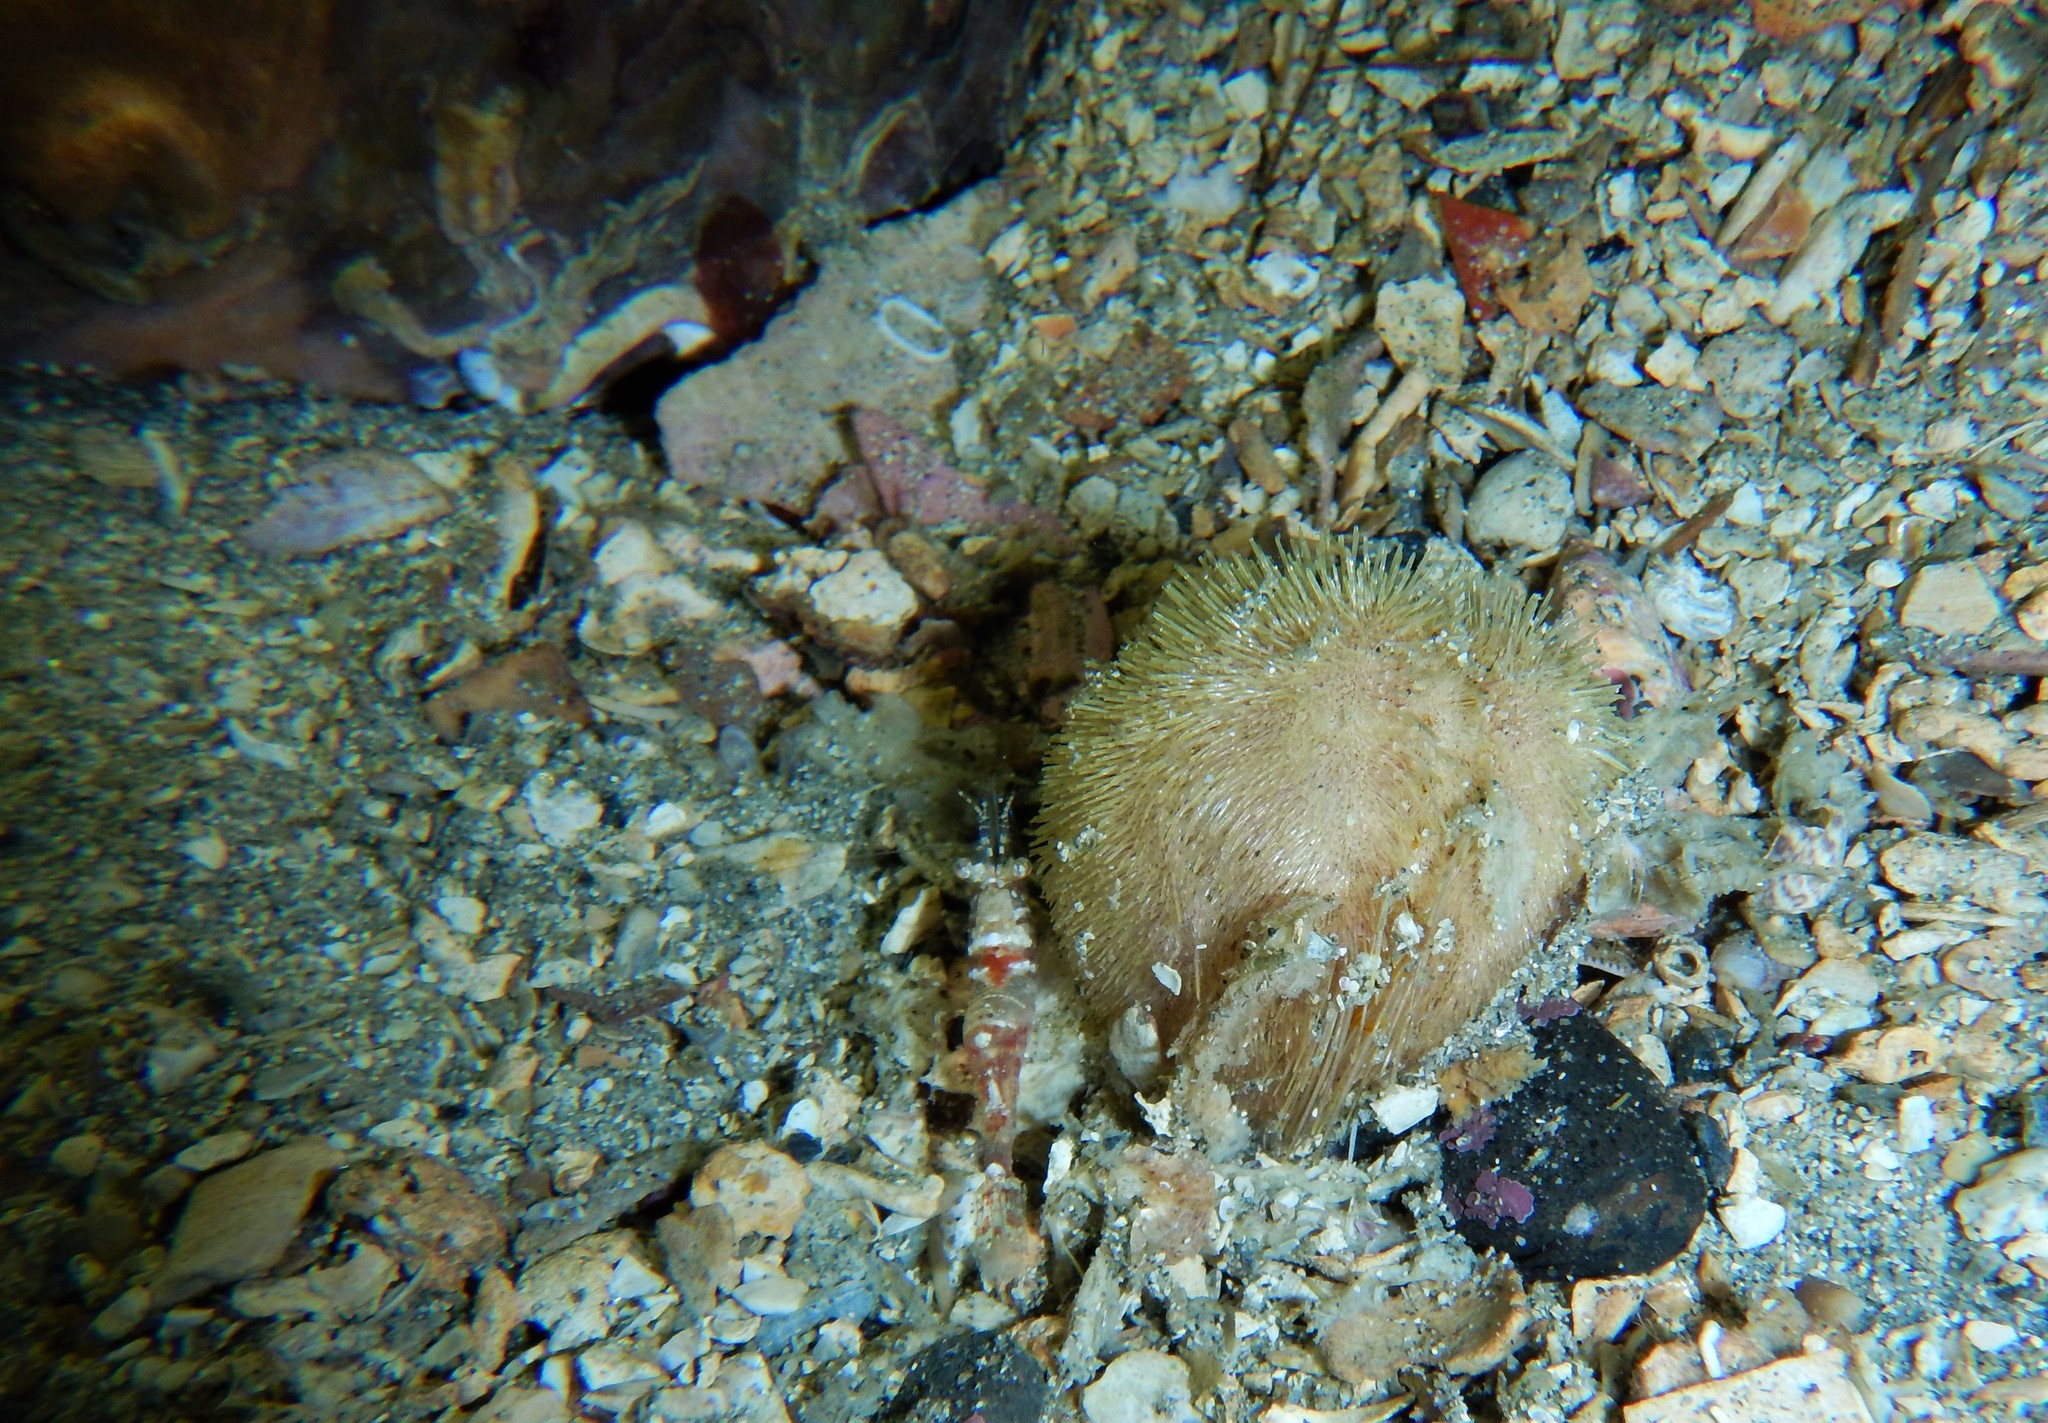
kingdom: Animalia
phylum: Echinodermata
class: Echinoidea
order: Spatangoida
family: Loveniidae
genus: Echinocardium
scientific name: Echinocardium cordatum
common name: Heart-urchin
